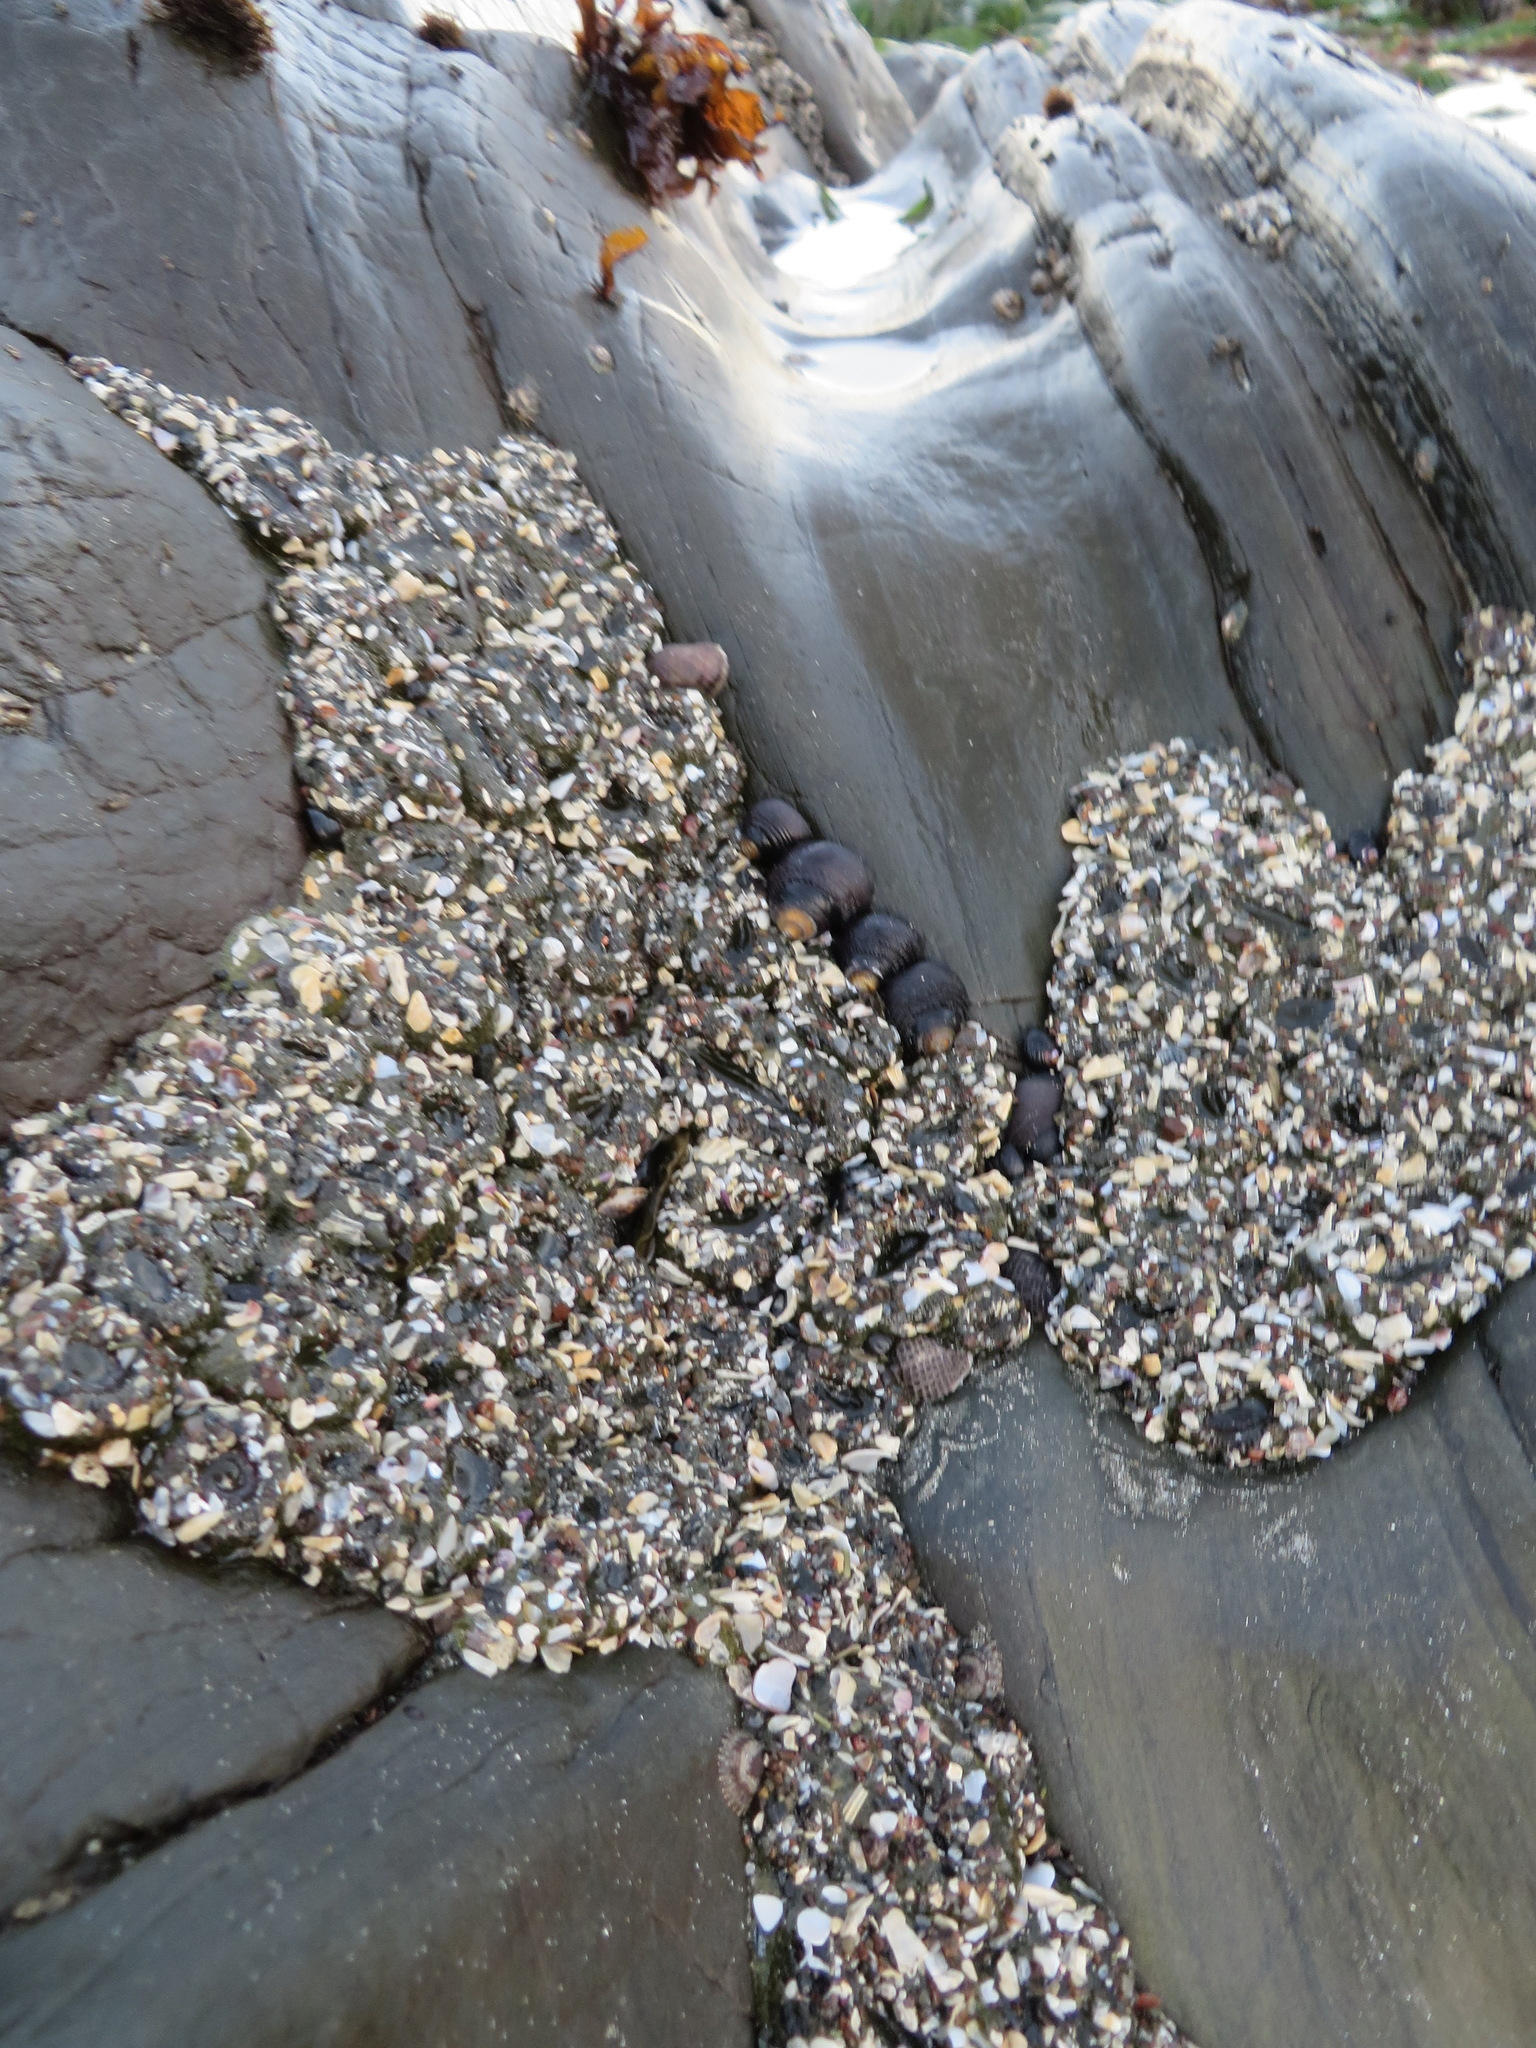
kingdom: Animalia
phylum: Cnidaria
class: Anthozoa
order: Actiniaria
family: Actiniidae
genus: Anthopleura
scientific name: Anthopleura elegantissima
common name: Clonal anemone
